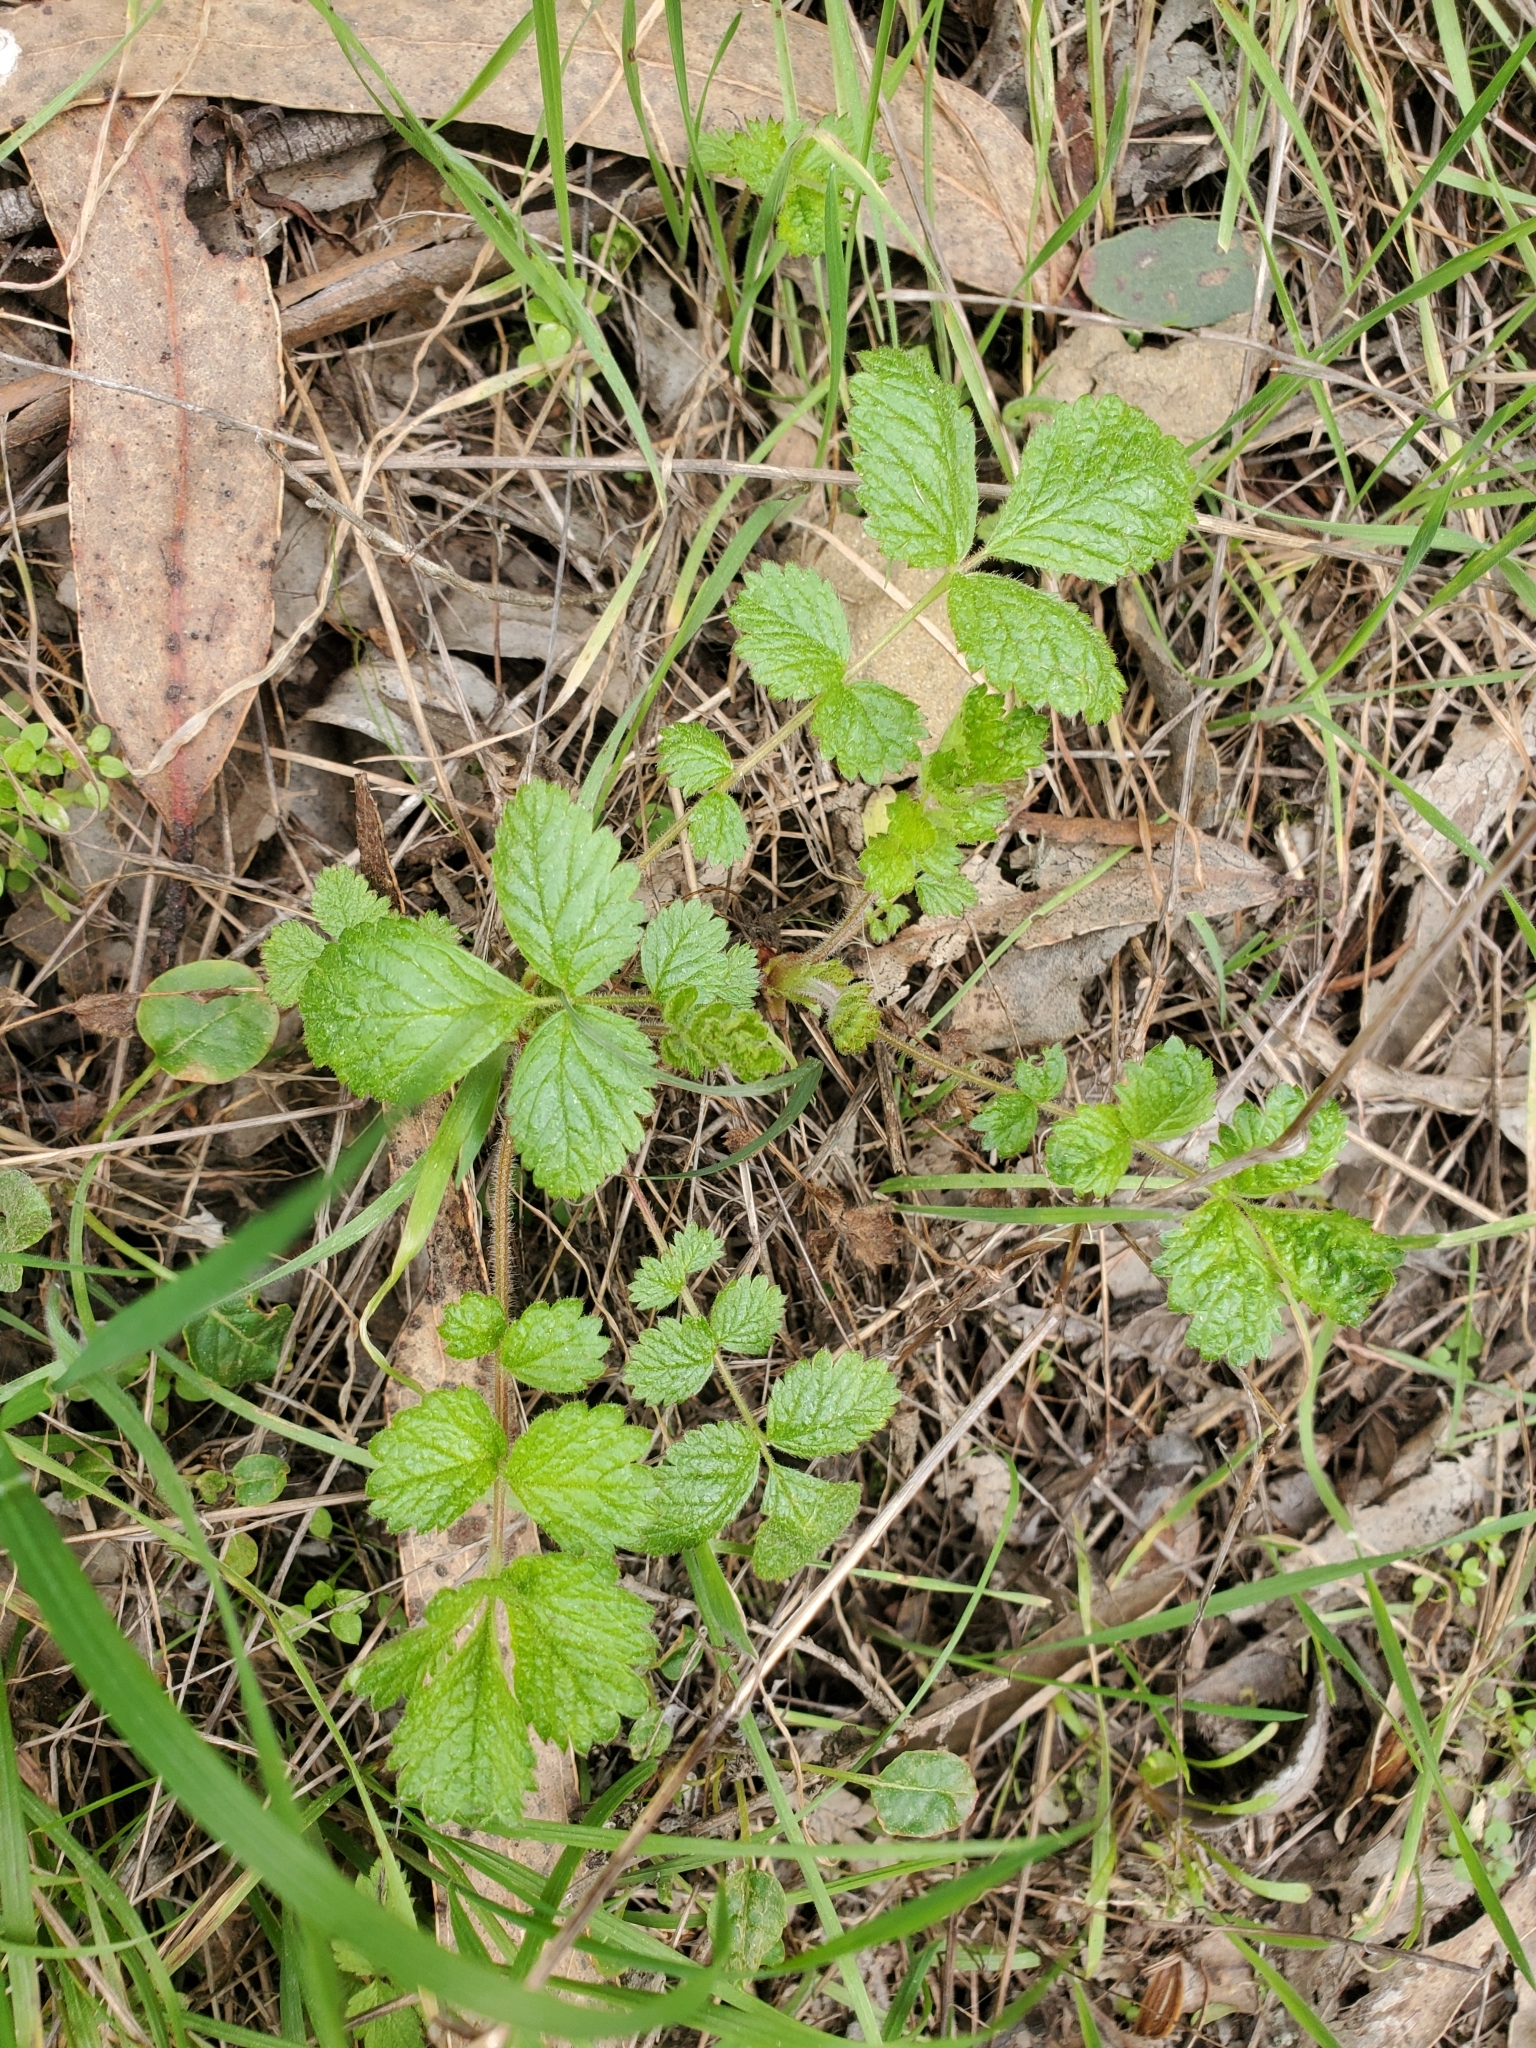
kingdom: Plantae
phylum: Tracheophyta
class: Magnoliopsida
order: Rosales
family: Rosaceae
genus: Drymocallis
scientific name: Drymocallis glandulosa
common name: Sticky cinquefoil
